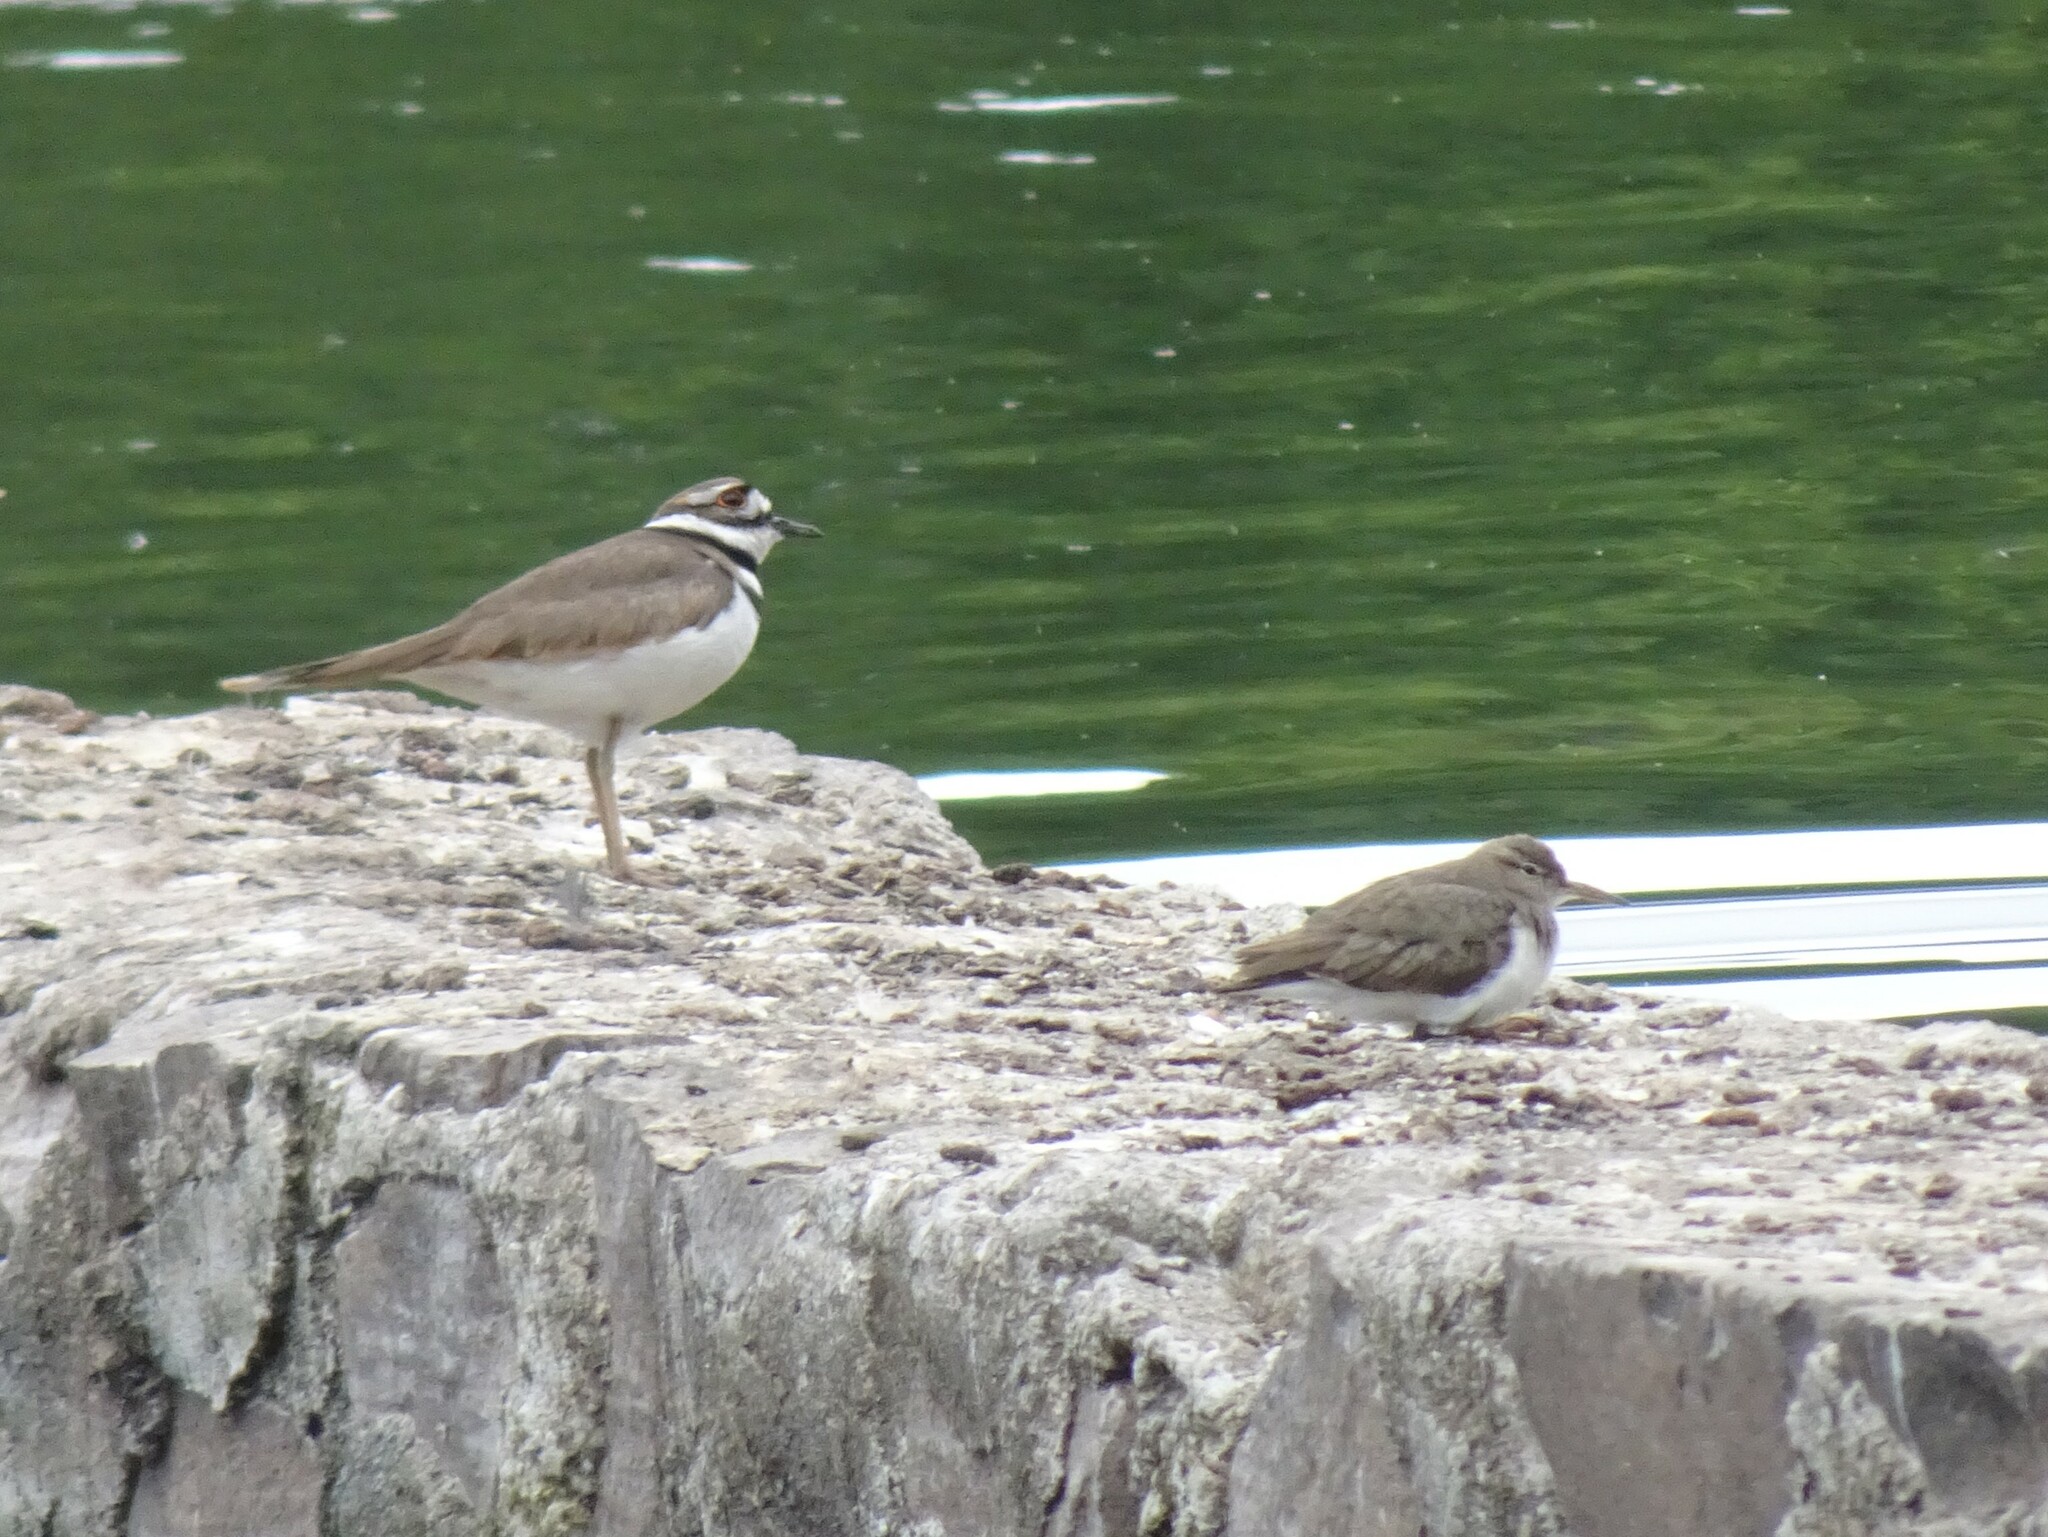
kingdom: Animalia
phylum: Chordata
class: Aves
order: Charadriiformes
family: Scolopacidae
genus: Actitis
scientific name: Actitis macularius
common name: Spotted sandpiper
